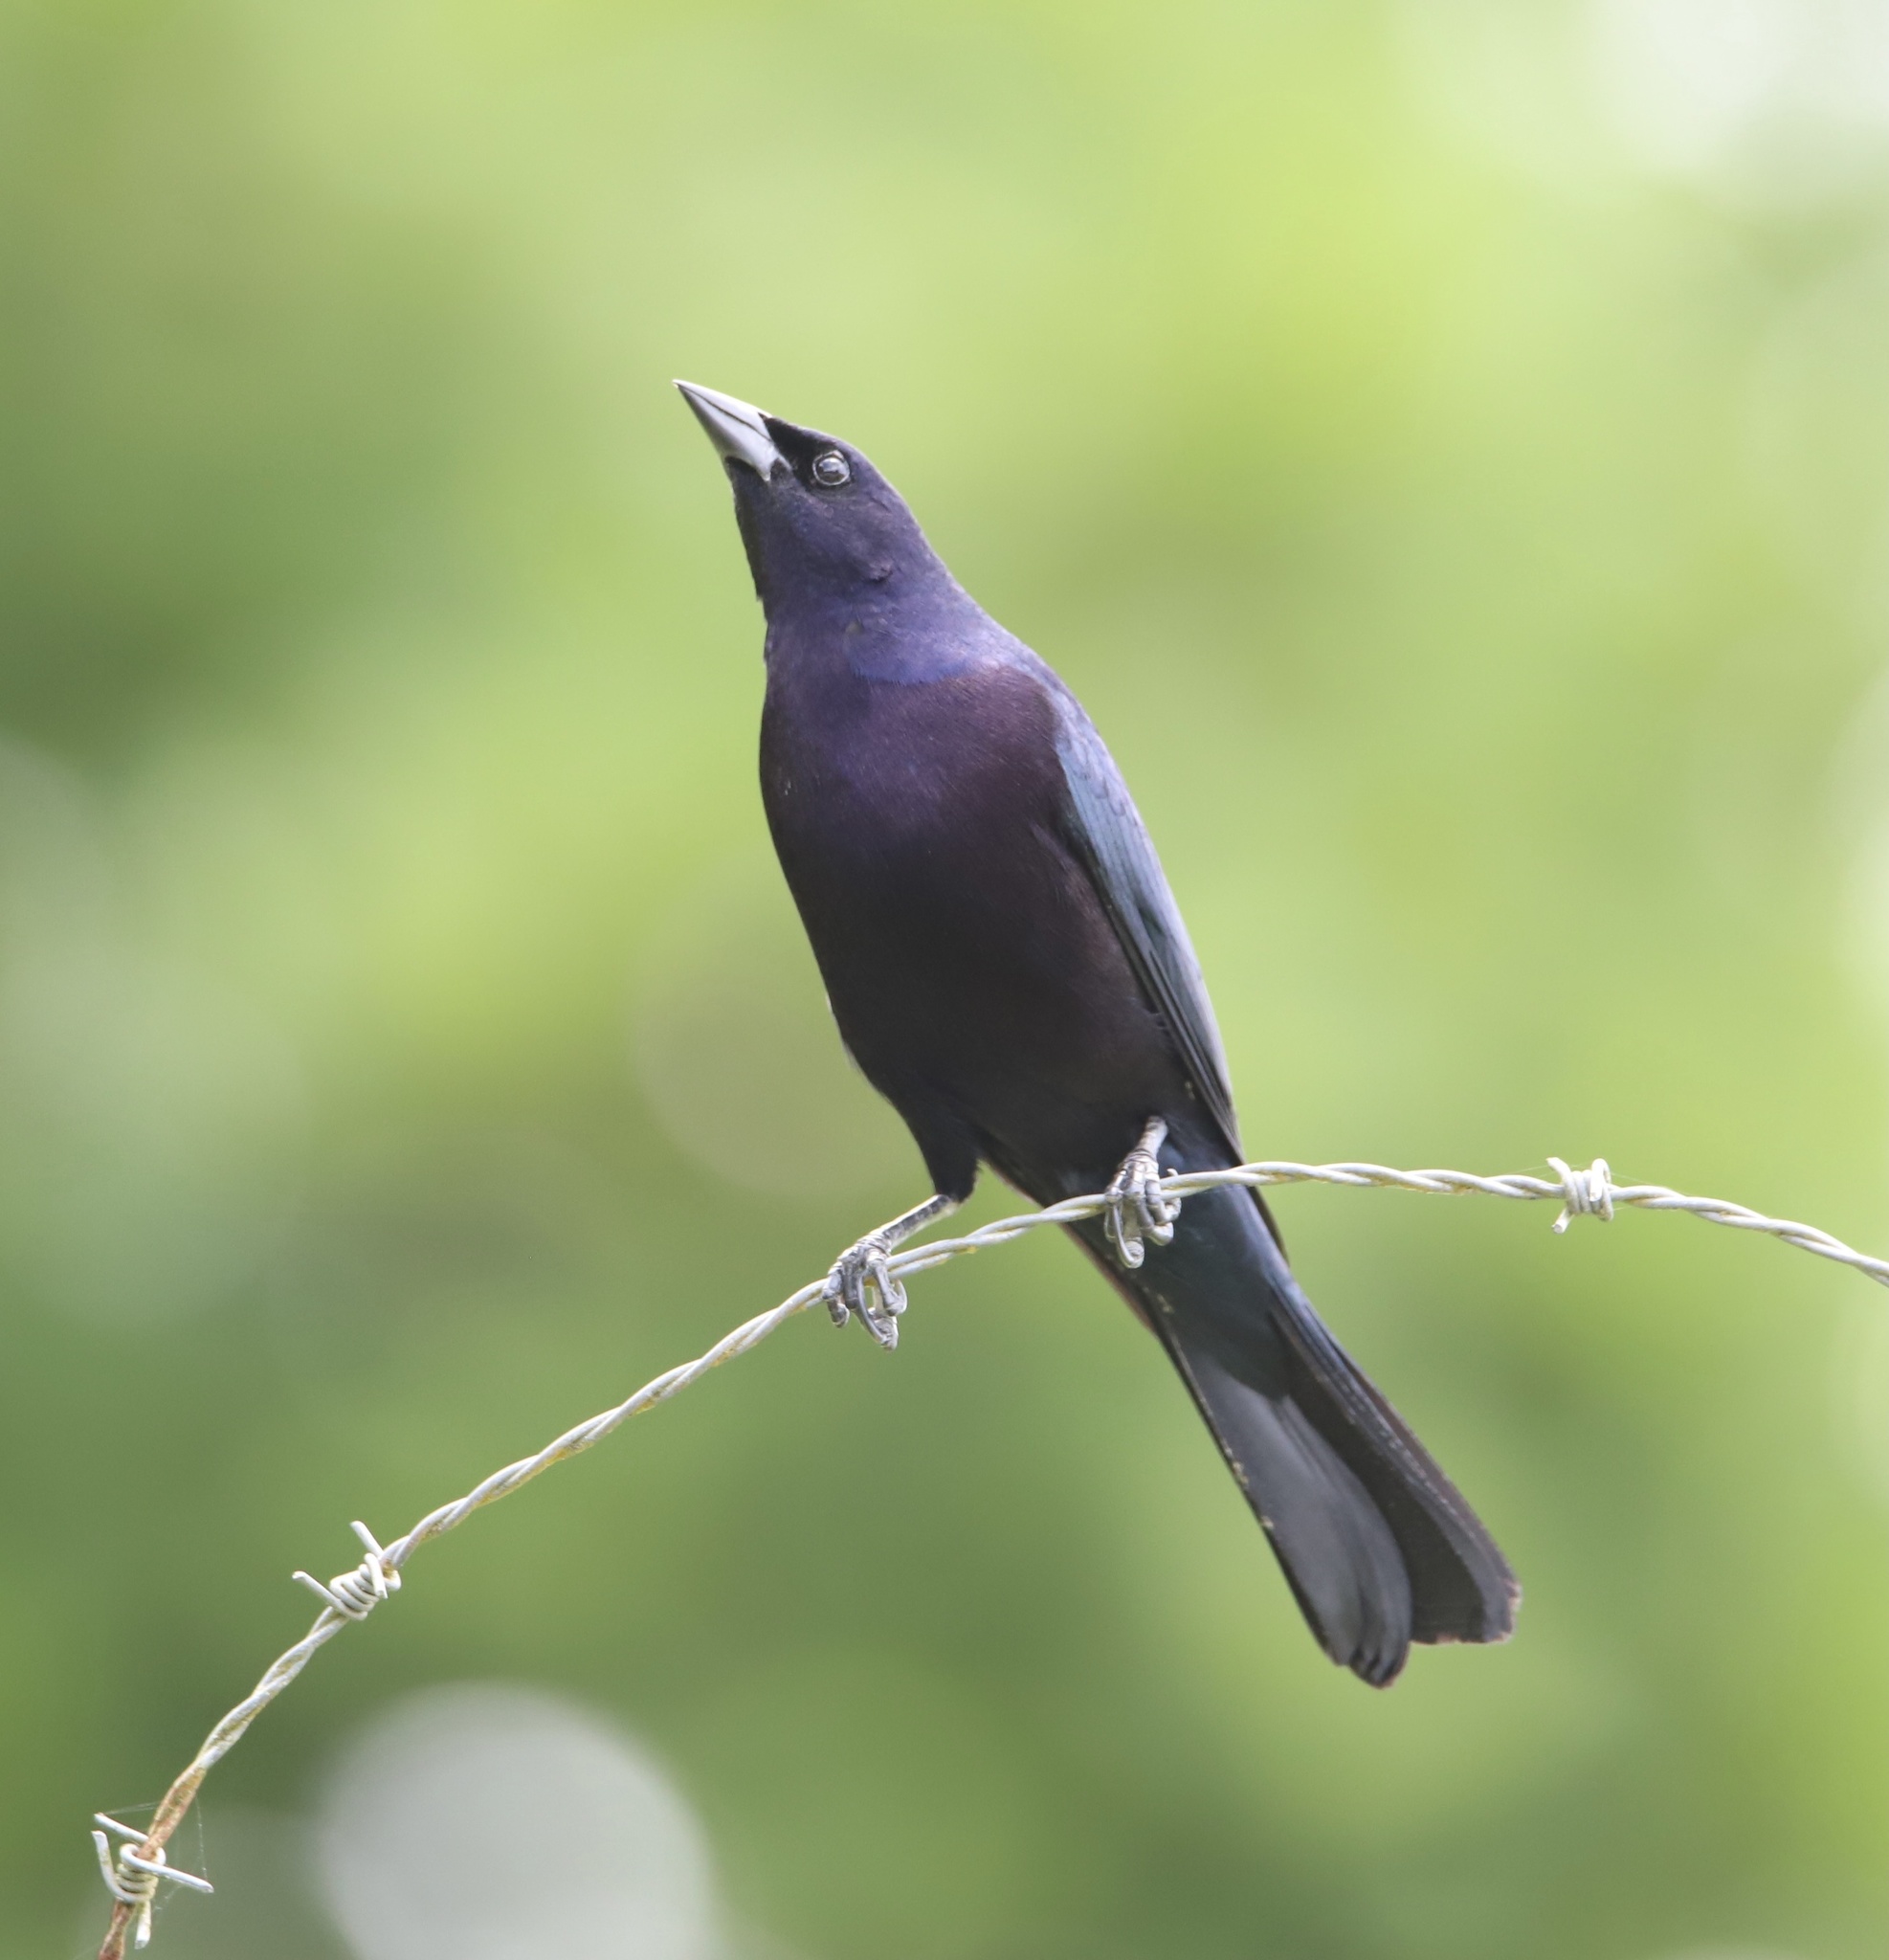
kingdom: Animalia
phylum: Chordata
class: Aves
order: Passeriformes
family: Icteridae
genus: Molothrus
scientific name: Molothrus bonariensis
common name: Shiny cowbird
